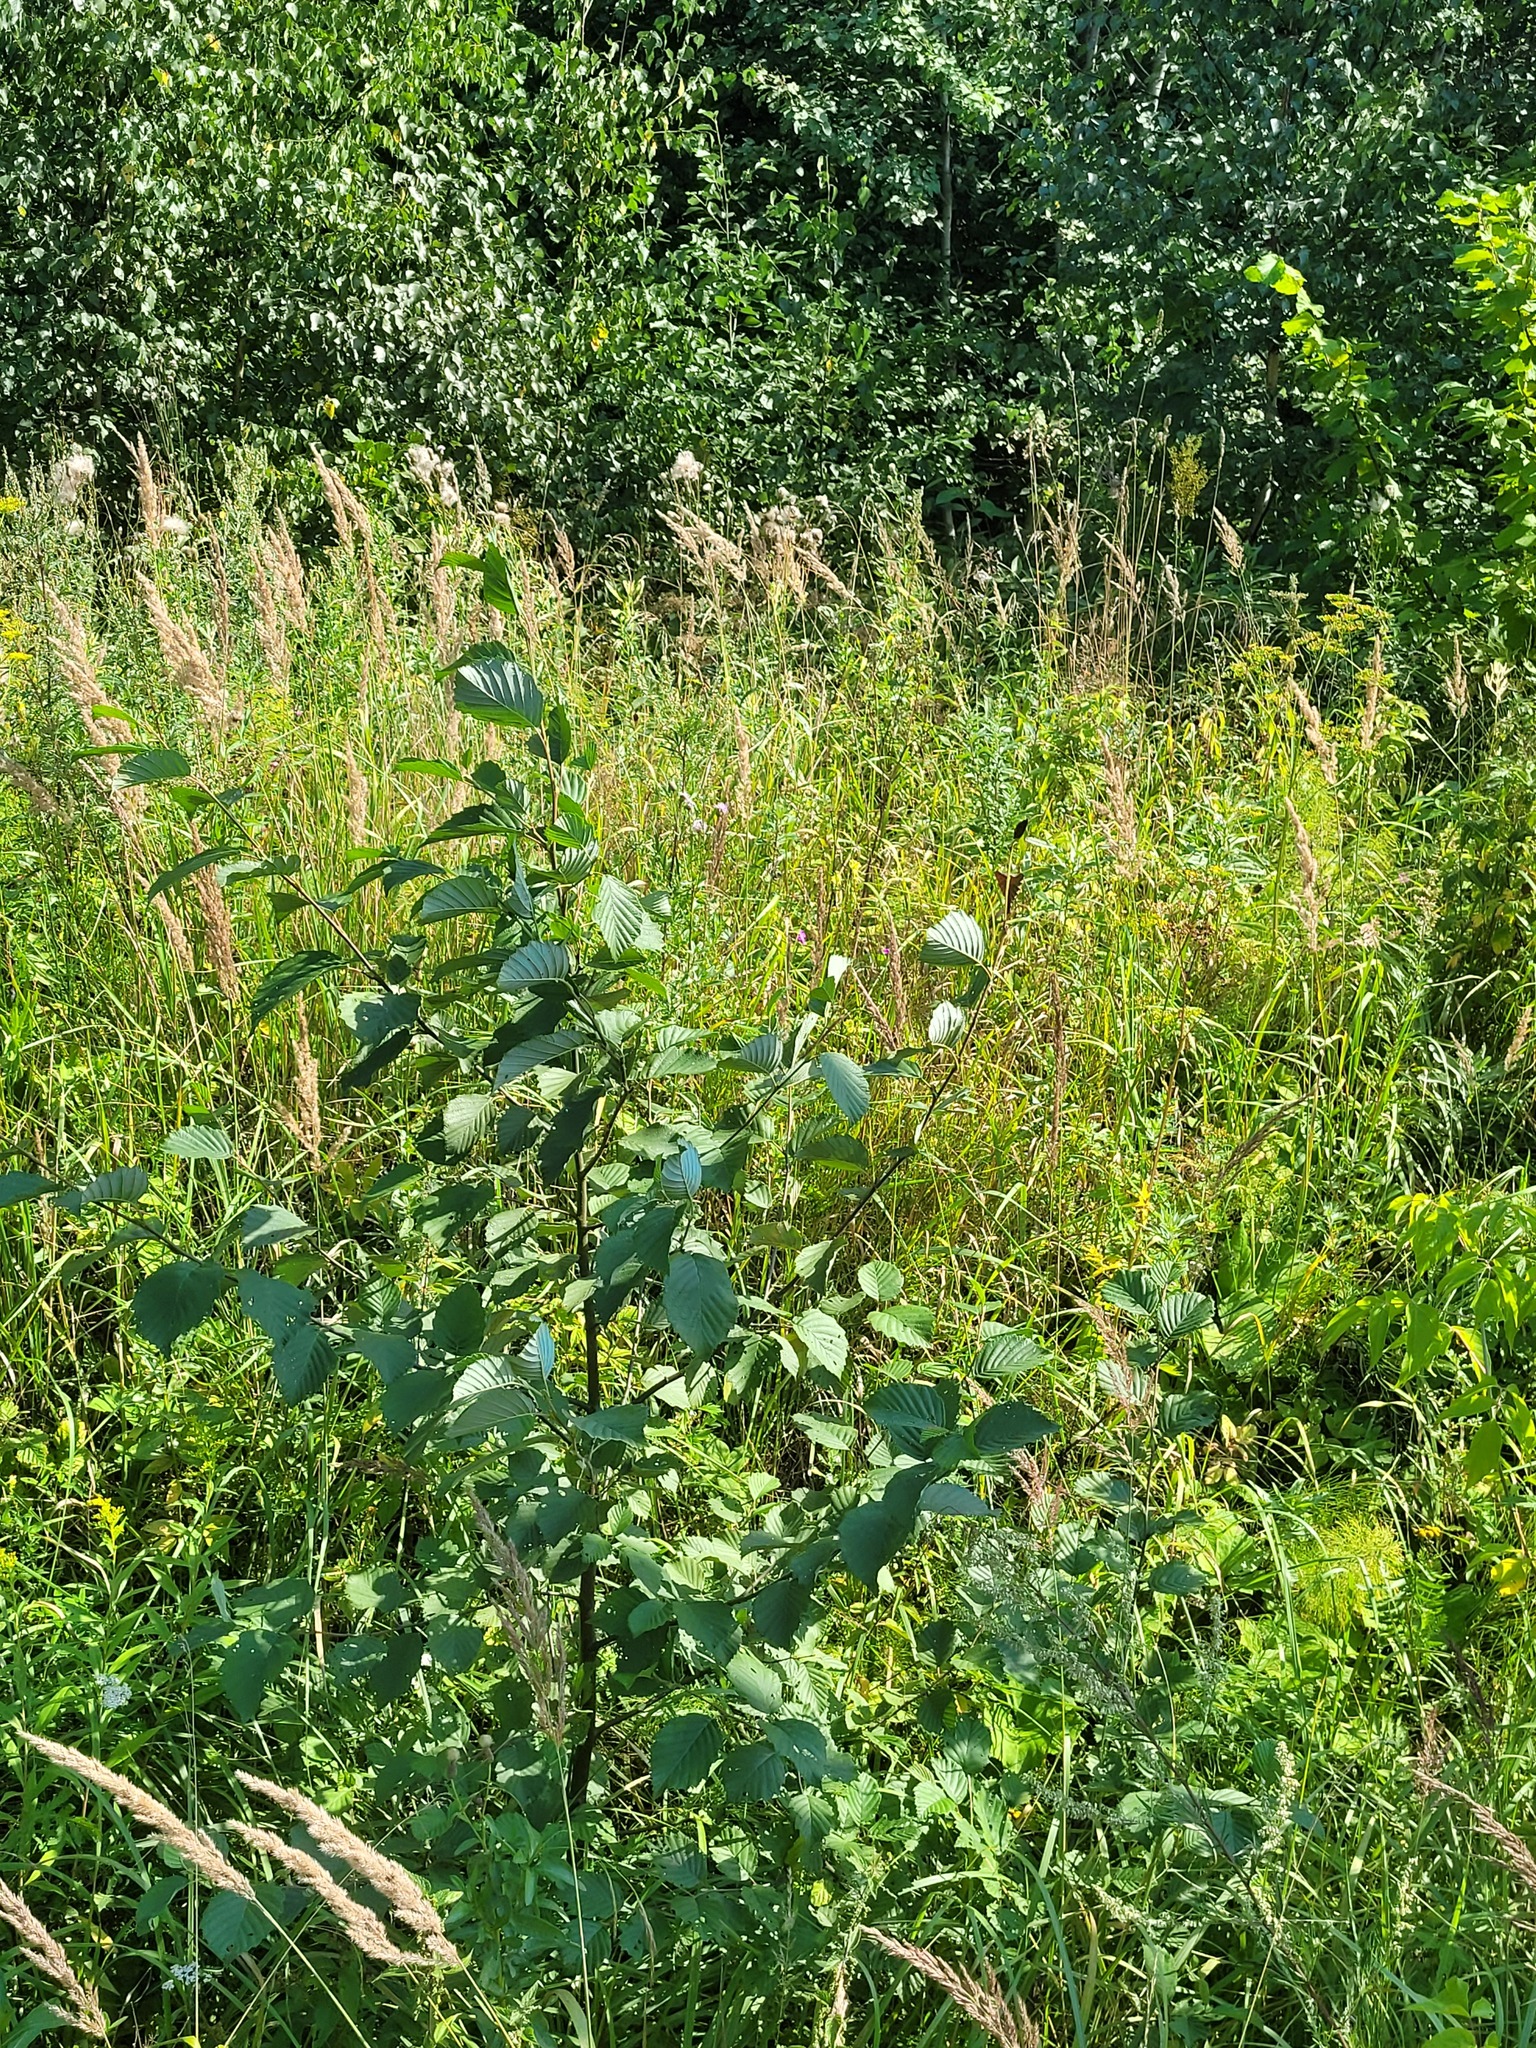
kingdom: Plantae
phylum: Tracheophyta
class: Magnoliopsida
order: Fagales
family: Betulaceae
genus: Alnus
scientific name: Alnus incana
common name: Grey alder
